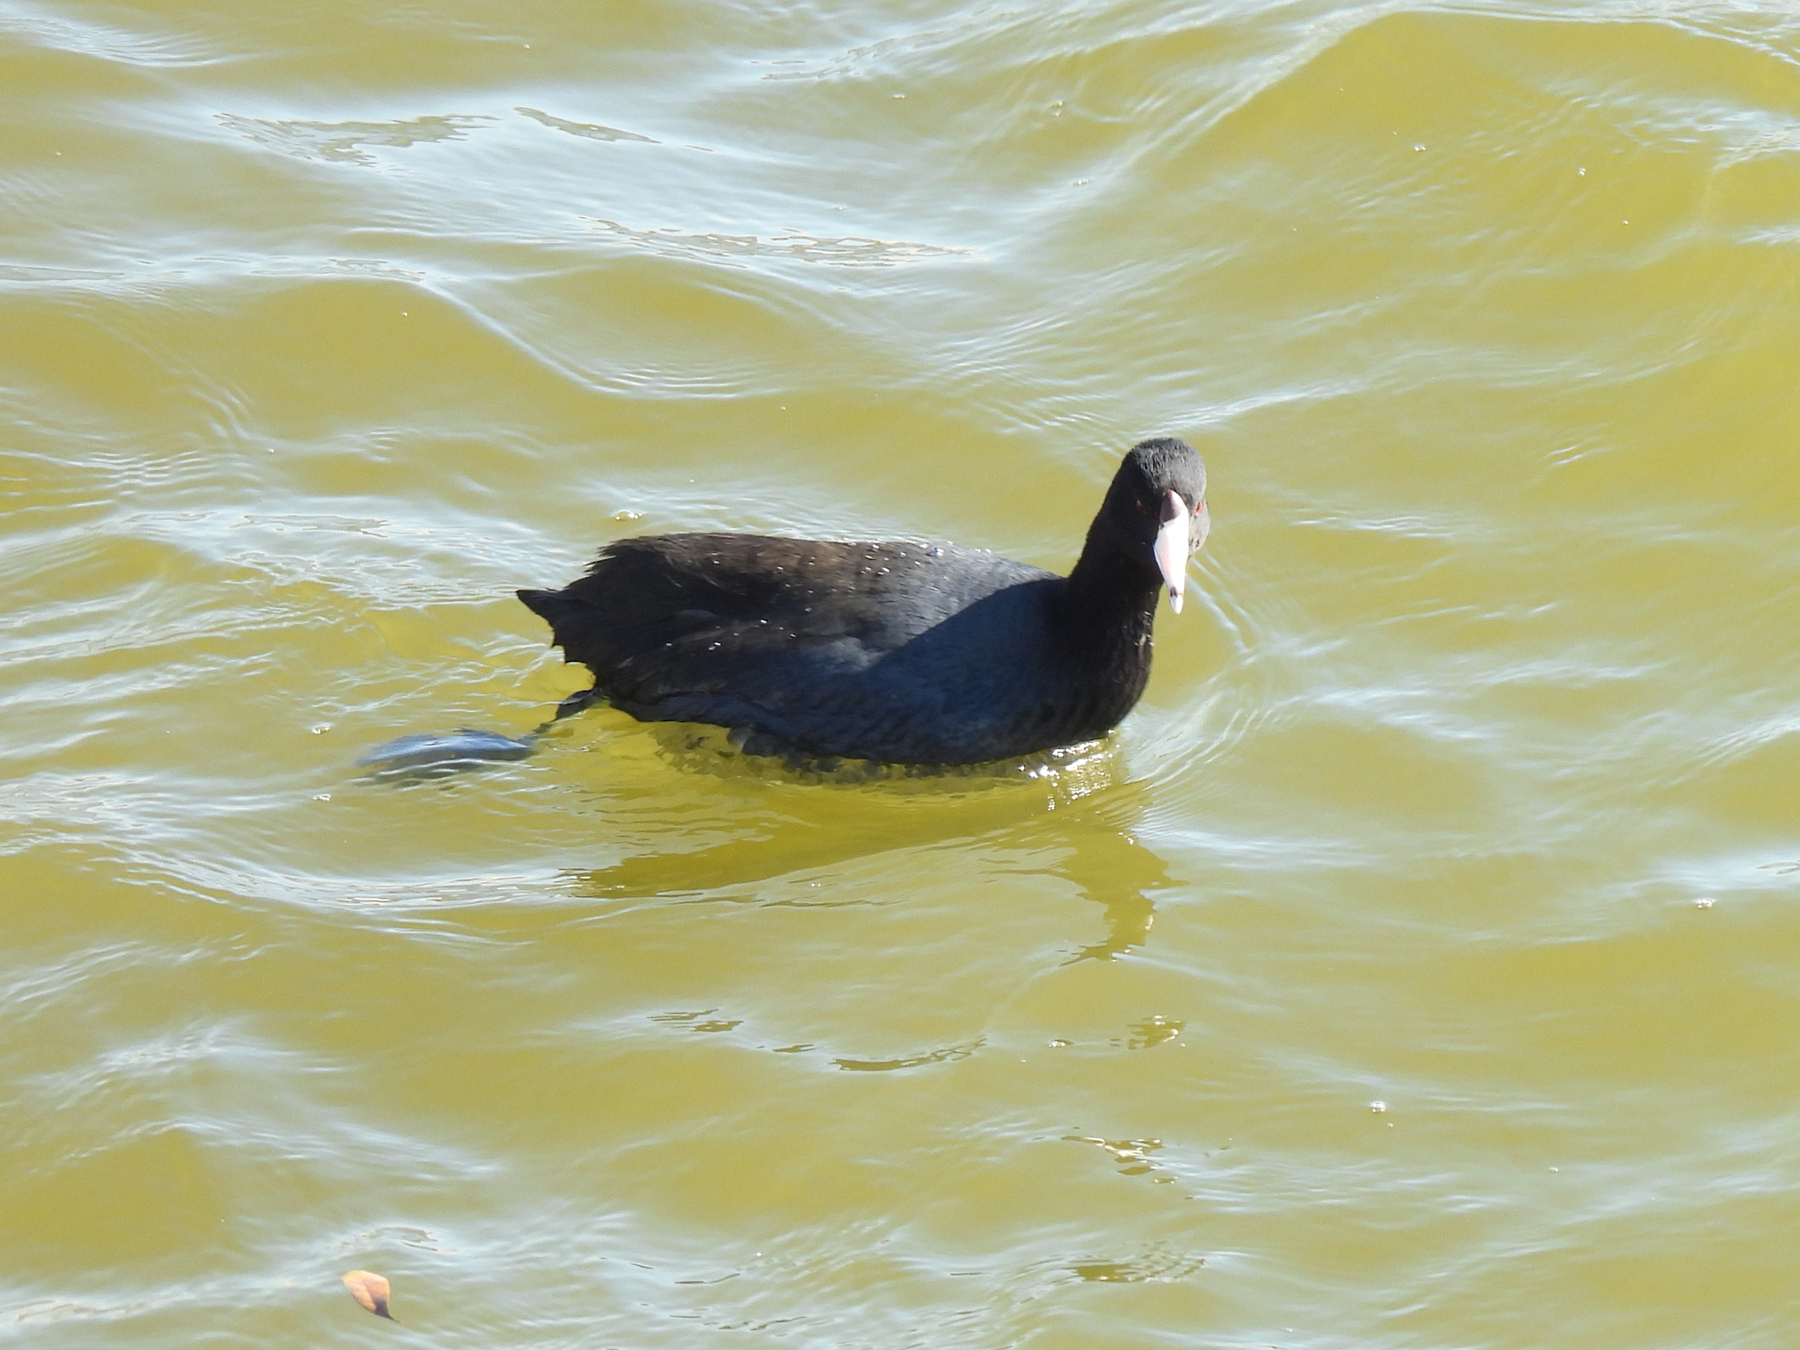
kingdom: Animalia
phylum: Chordata
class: Aves
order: Gruiformes
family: Rallidae
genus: Fulica
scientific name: Fulica americana
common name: American coot
